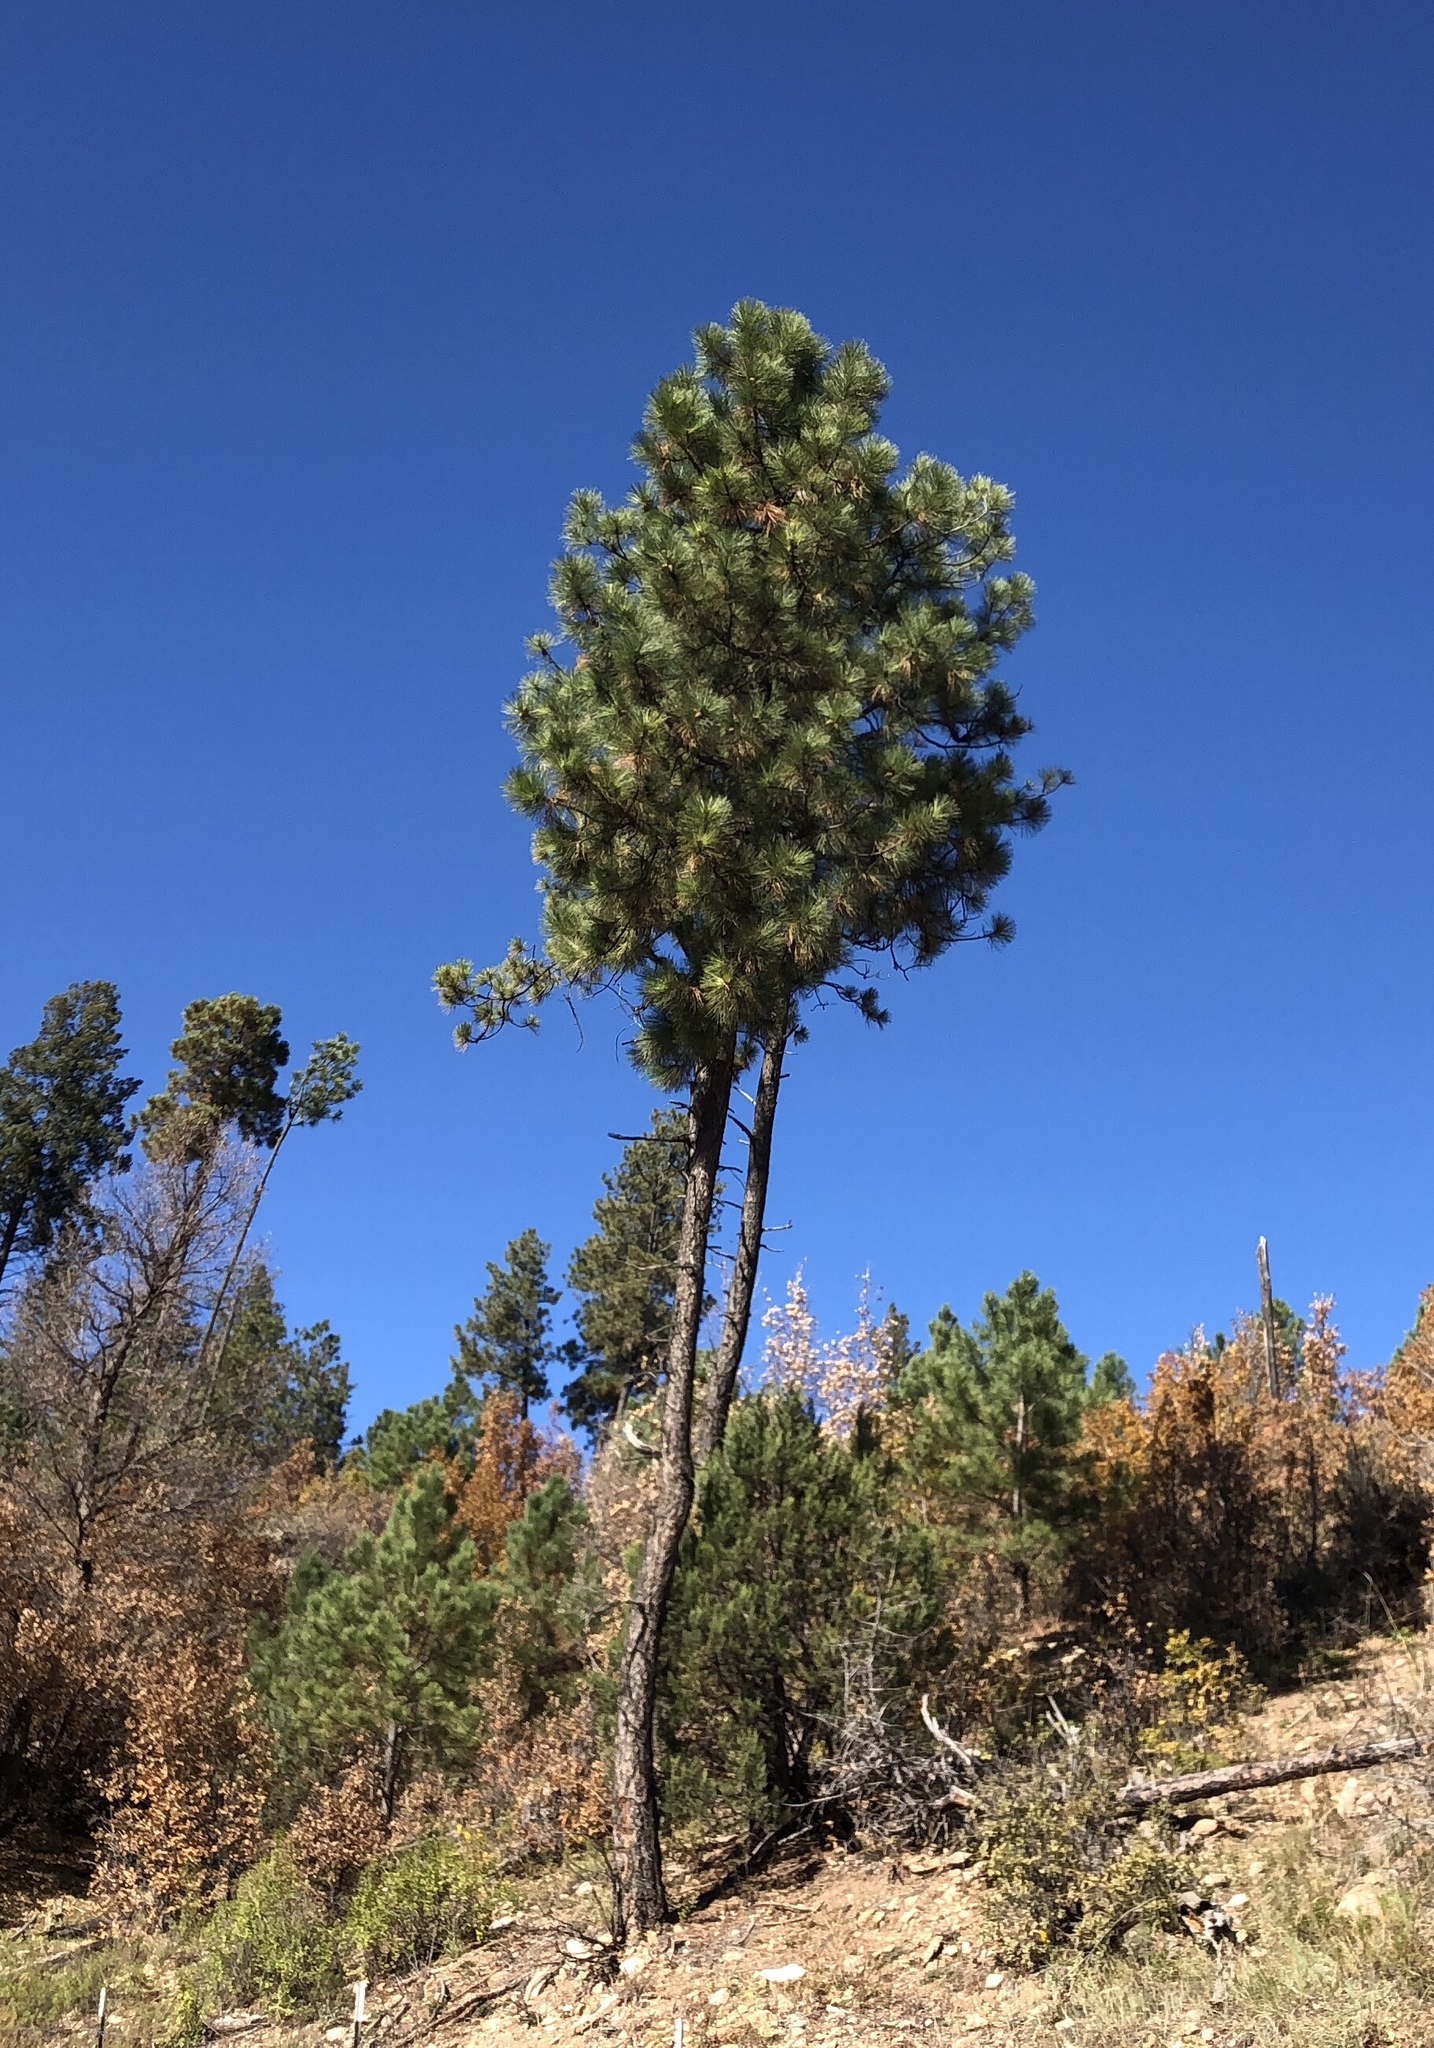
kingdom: Plantae
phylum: Tracheophyta
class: Pinopsida
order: Pinales
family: Pinaceae
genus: Pinus
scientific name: Pinus ponderosa
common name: Western yellow-pine
